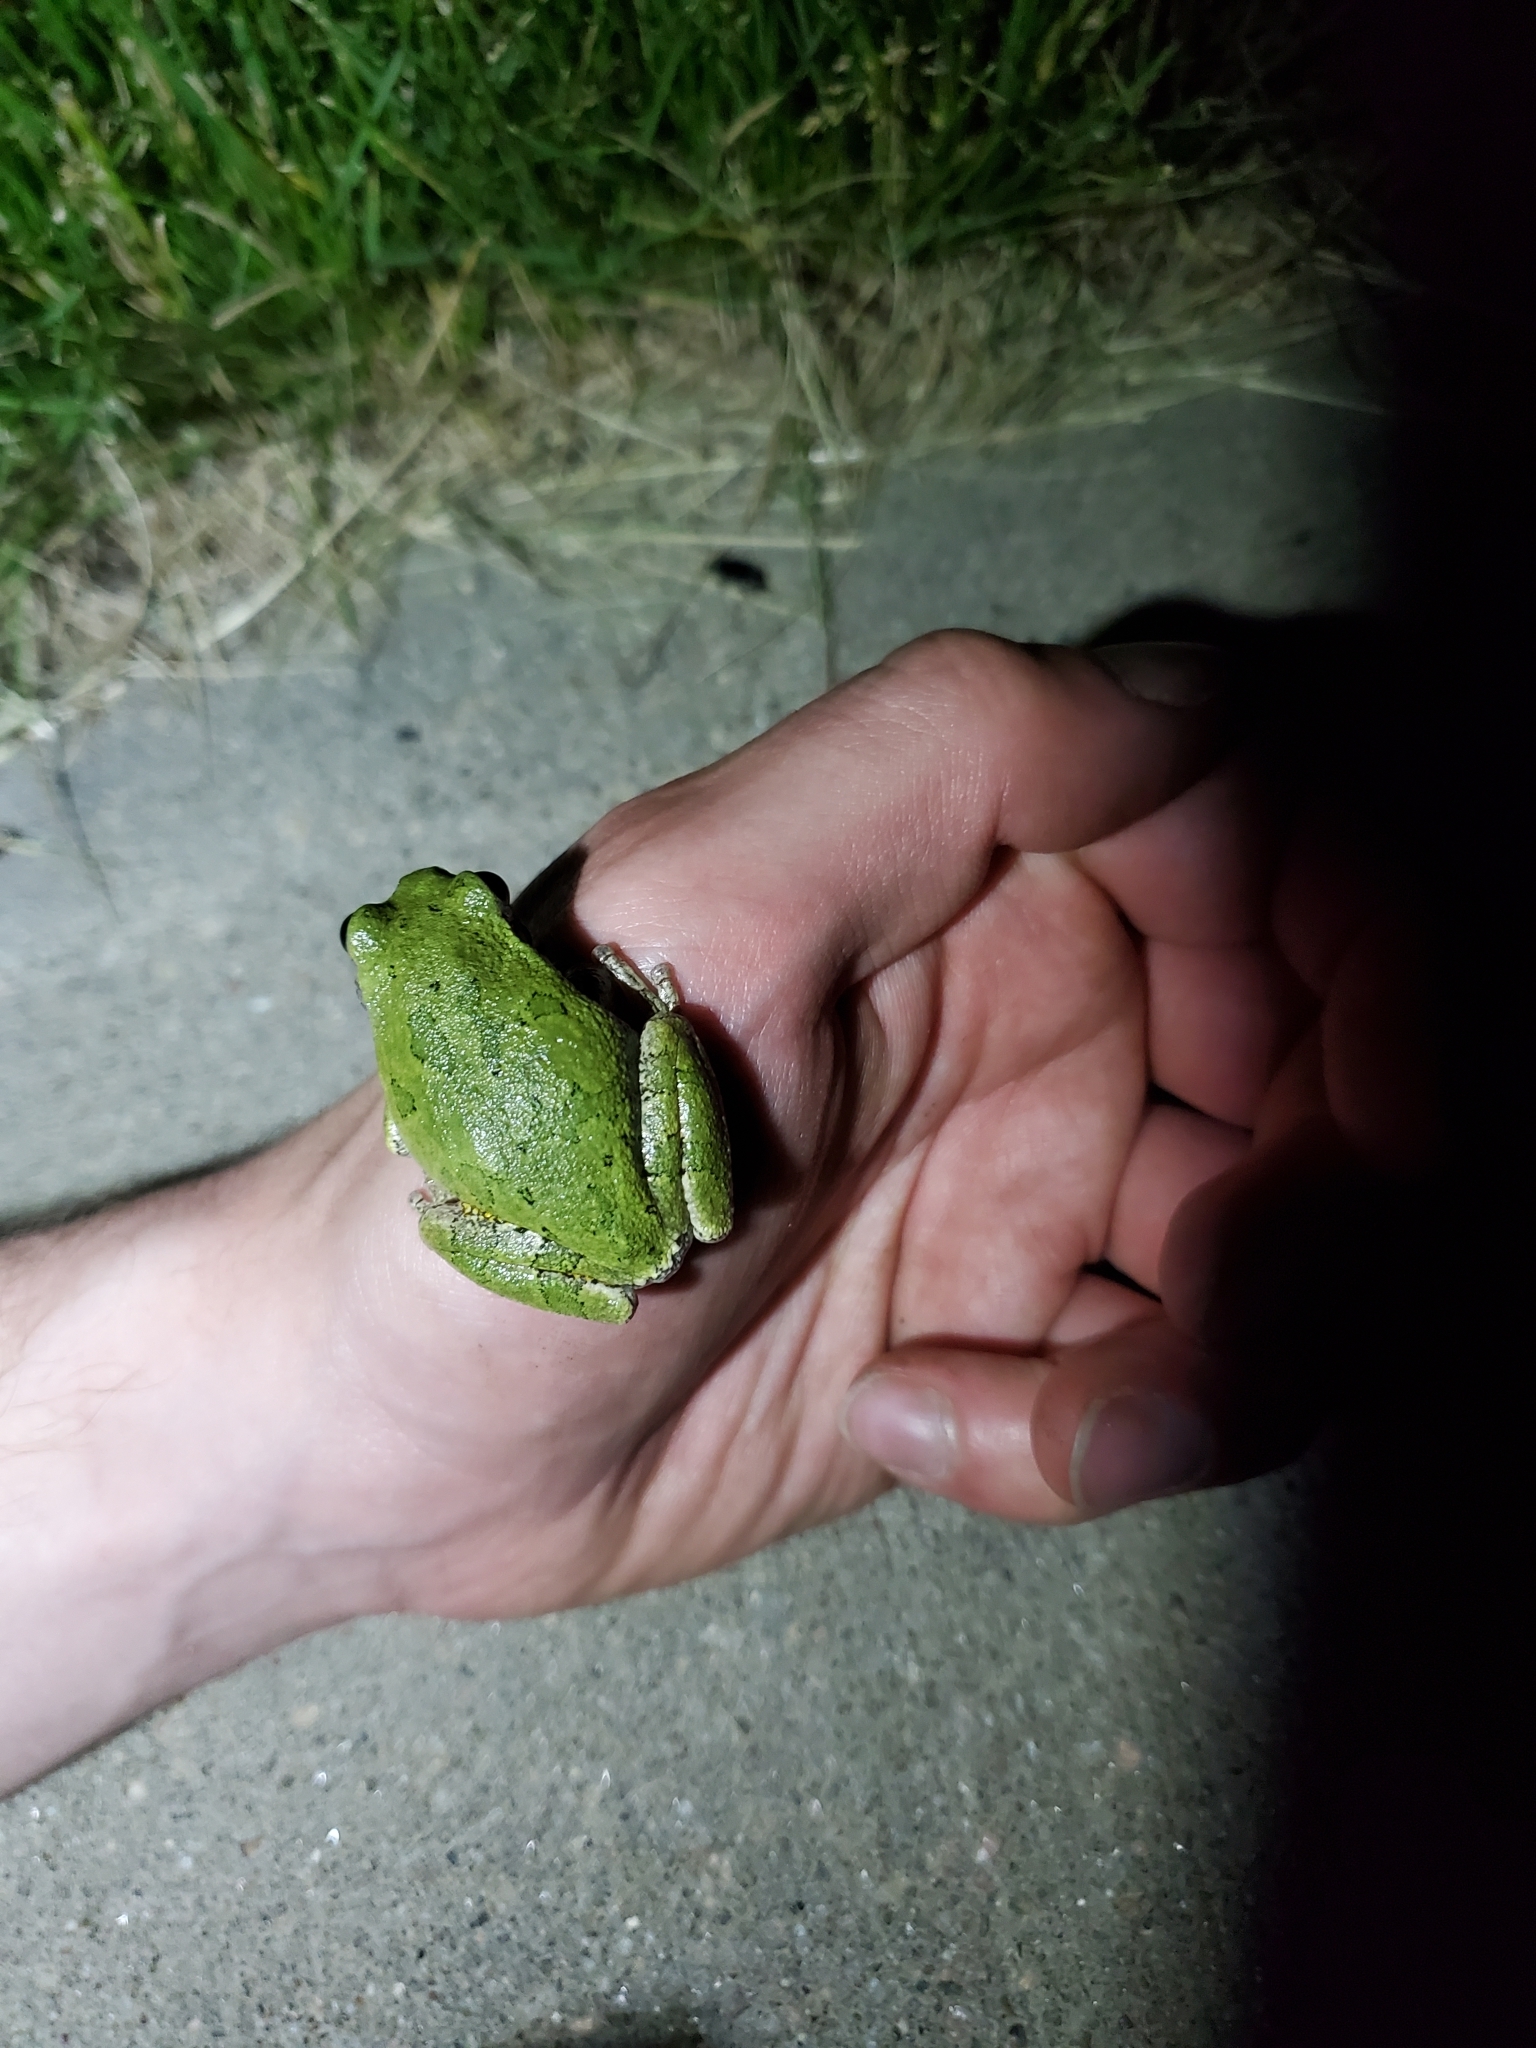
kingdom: Animalia
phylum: Chordata
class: Amphibia
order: Anura
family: Hylidae
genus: Dryophytes
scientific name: Dryophytes chrysoscelis
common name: Cope's gray treefrog
